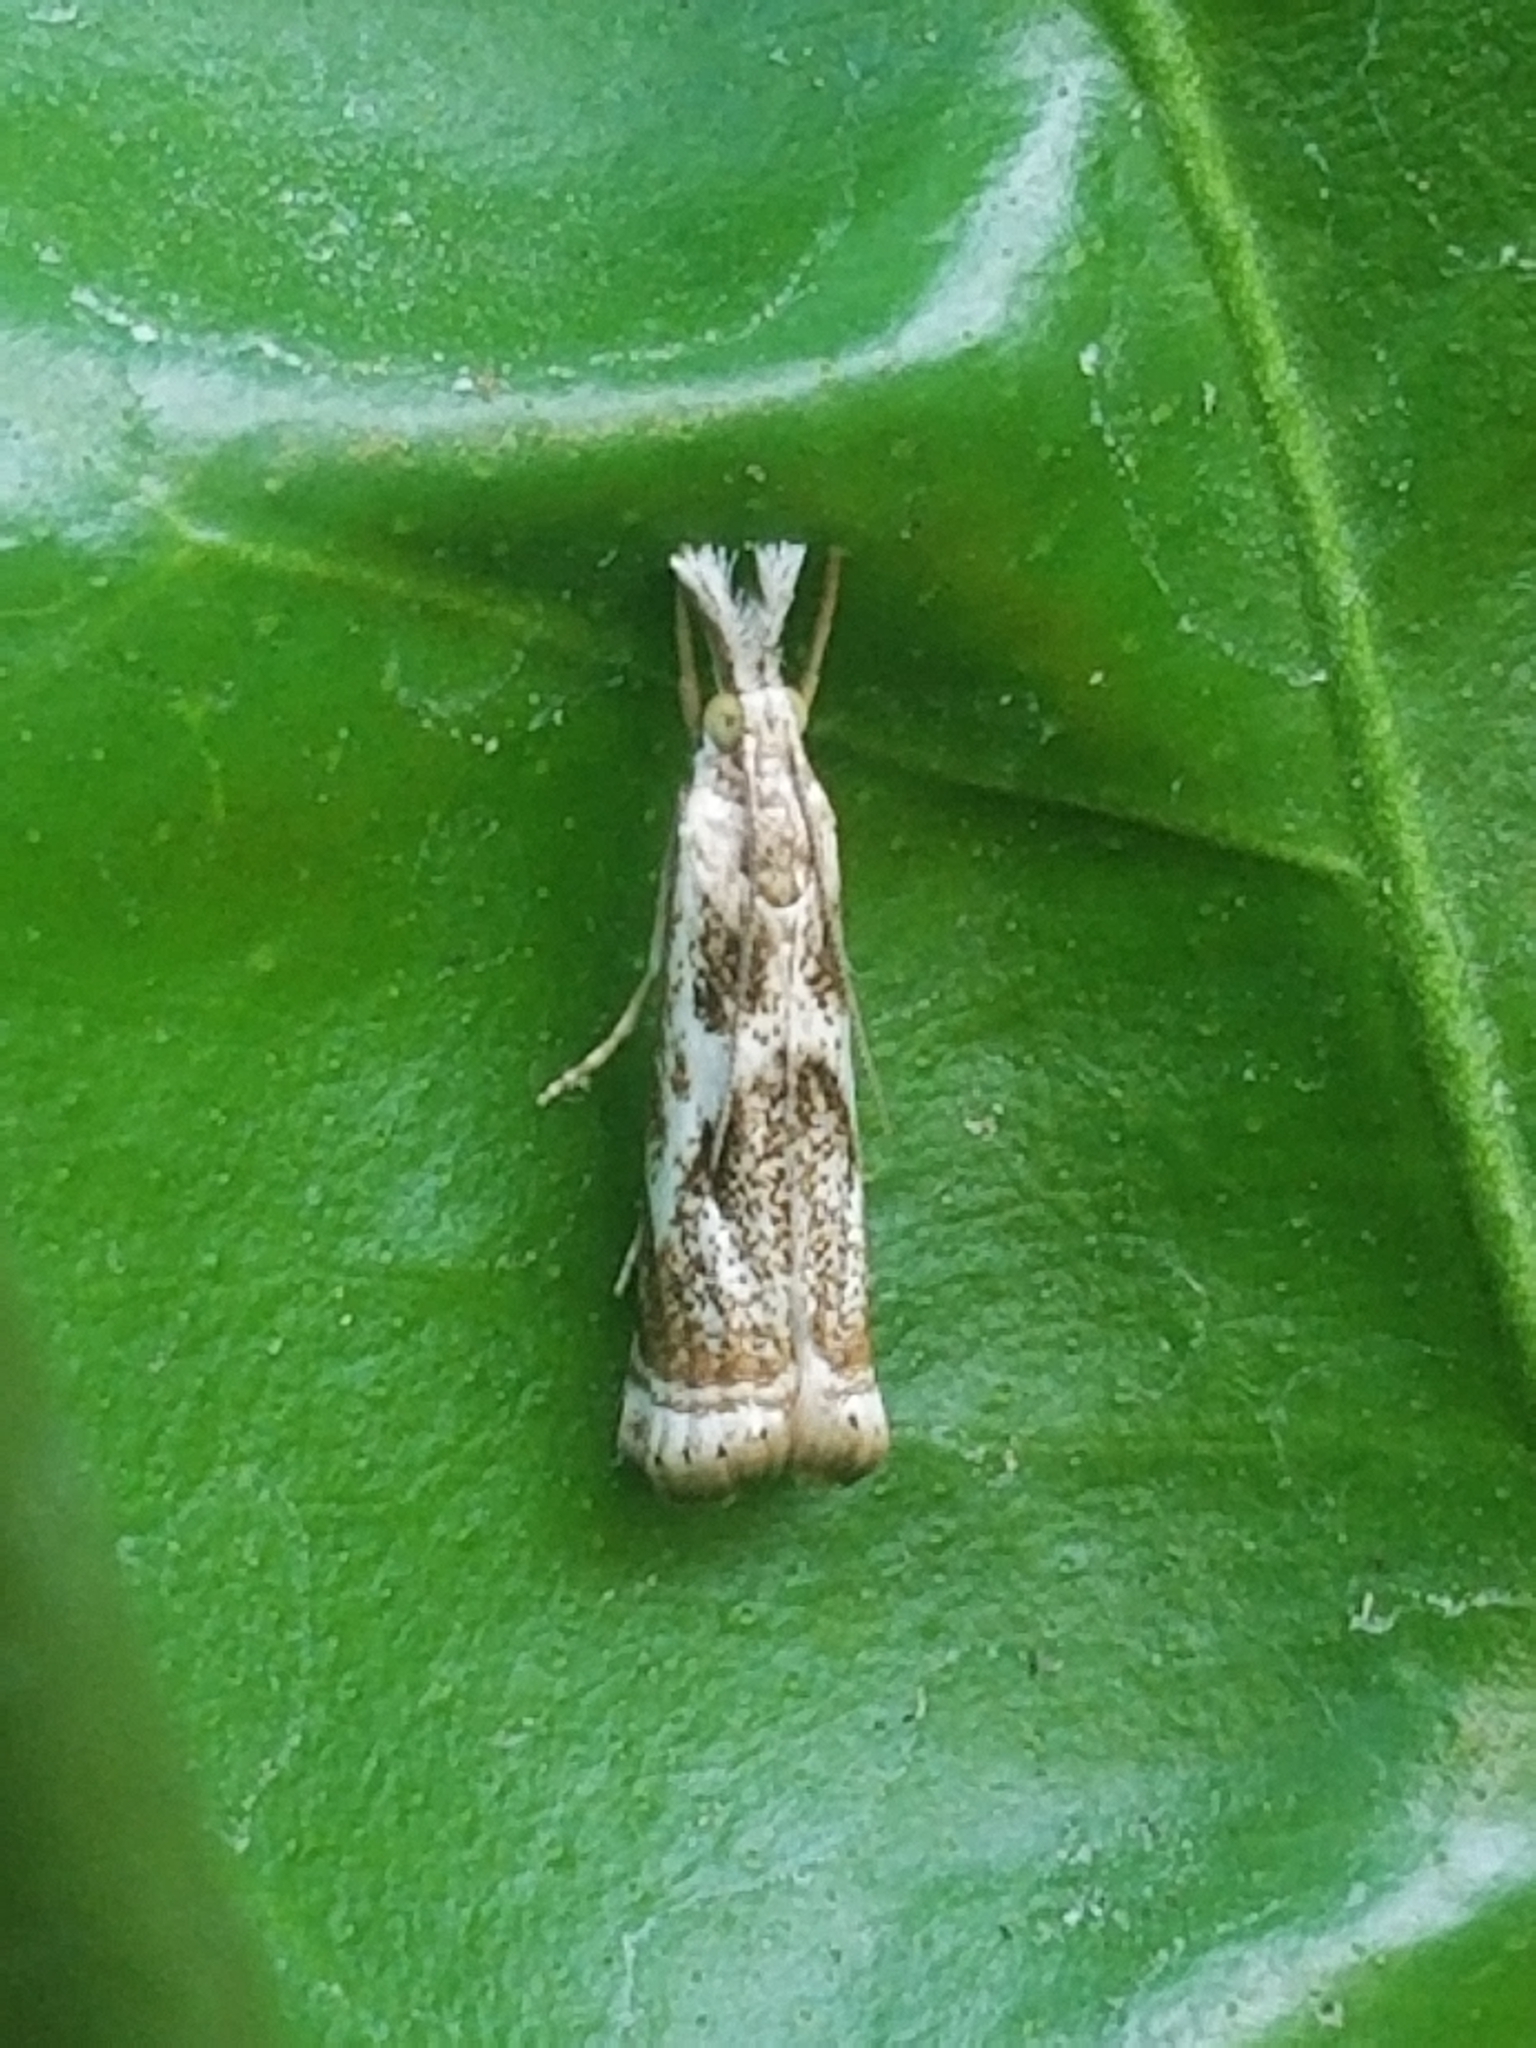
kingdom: Animalia
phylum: Arthropoda
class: Insecta
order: Lepidoptera
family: Crambidae
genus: Microcrambus
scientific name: Microcrambus elegans
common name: Elegant grass-veneer
